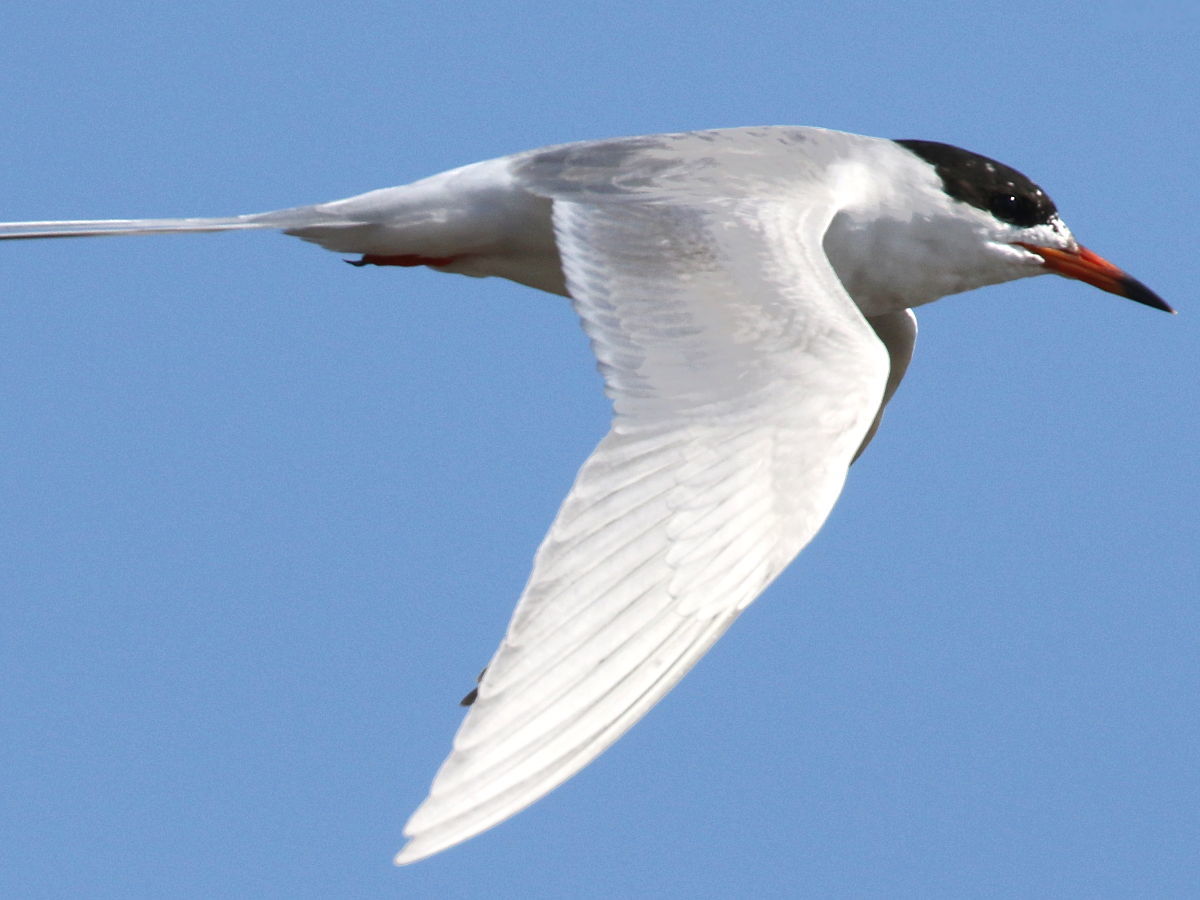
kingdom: Animalia
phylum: Chordata
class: Aves
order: Charadriiformes
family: Laridae
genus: Sterna
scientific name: Sterna forsteri
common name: Forster's tern
